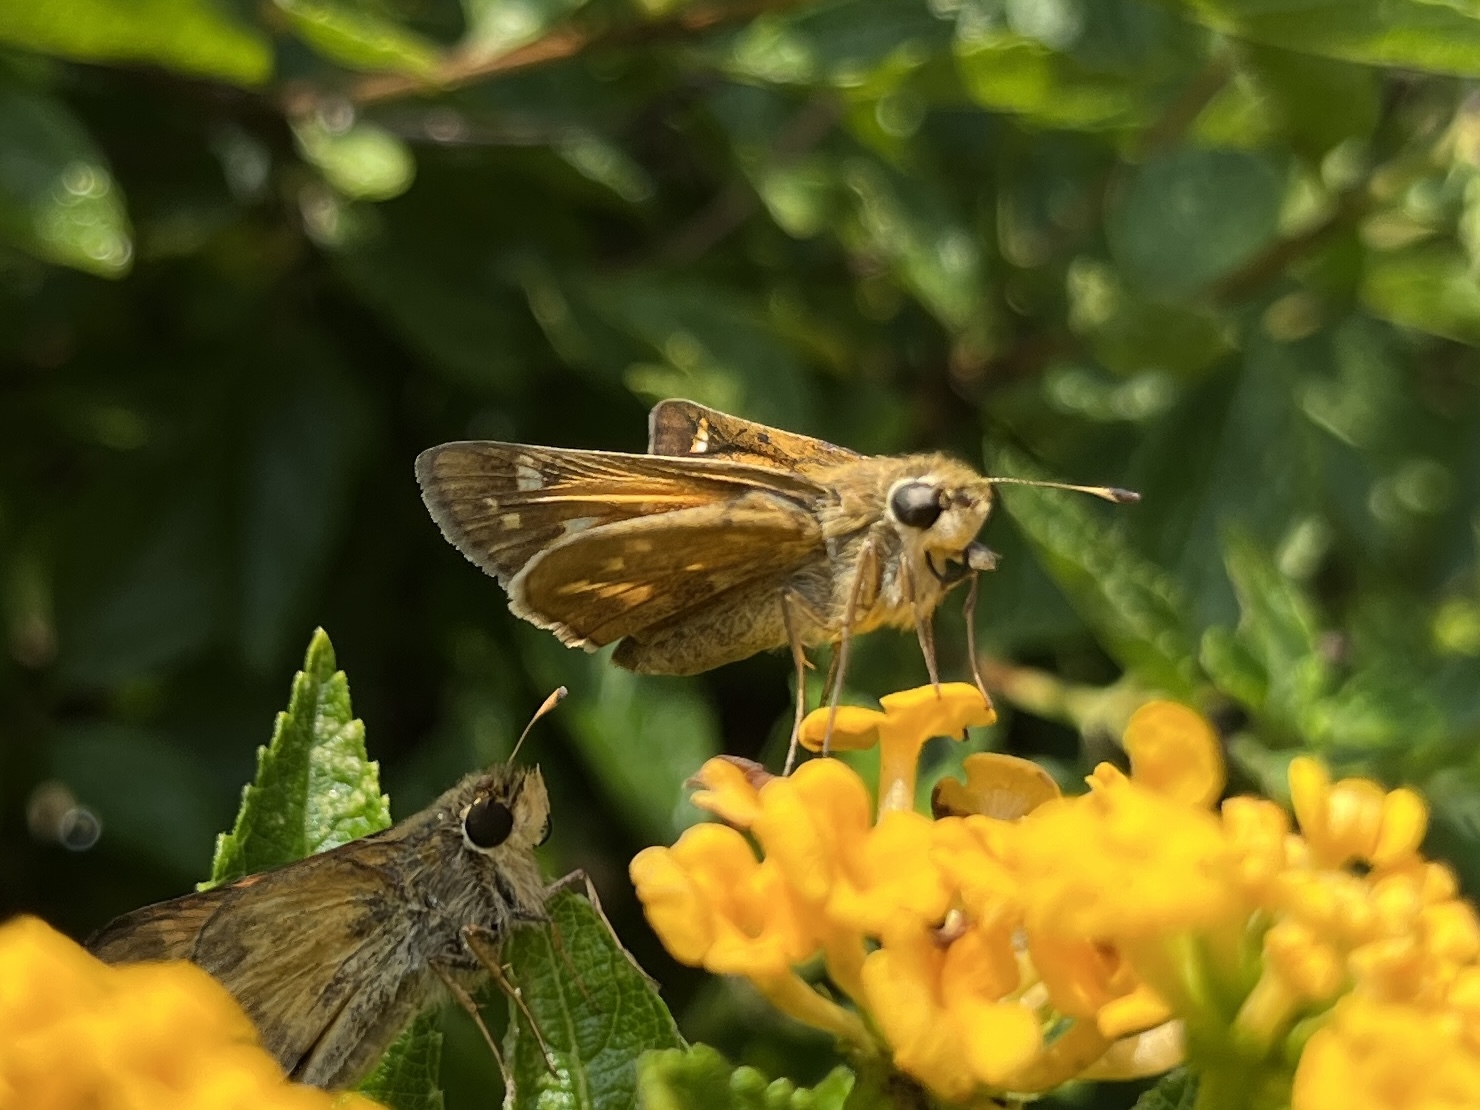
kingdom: Animalia
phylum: Arthropoda
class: Insecta
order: Lepidoptera
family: Hesperiidae
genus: Atalopedes
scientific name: Atalopedes
